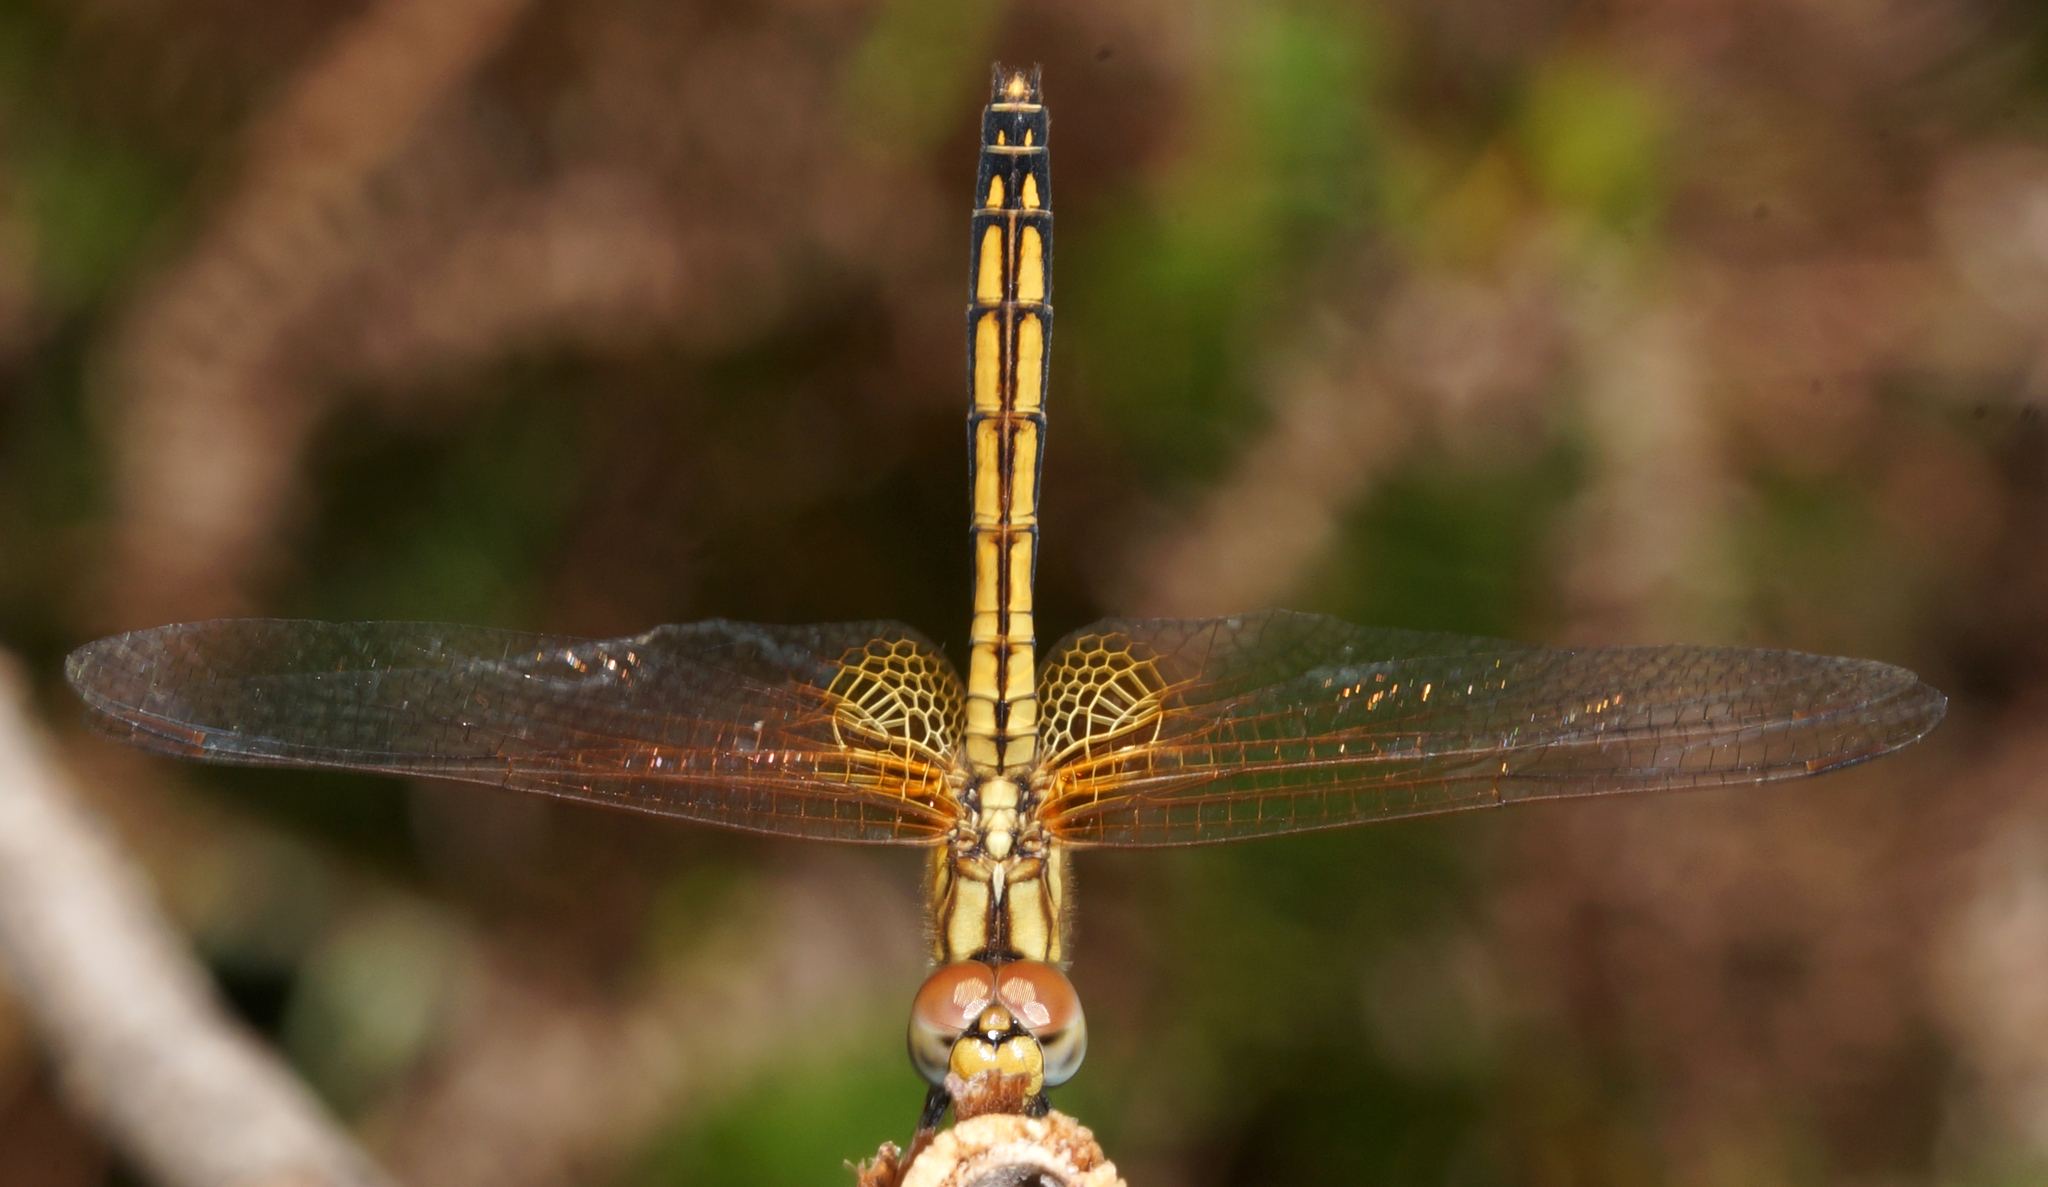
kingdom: Animalia
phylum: Arthropoda
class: Insecta
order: Odonata
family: Libellulidae
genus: Trithemis
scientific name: Trithemis aurora
